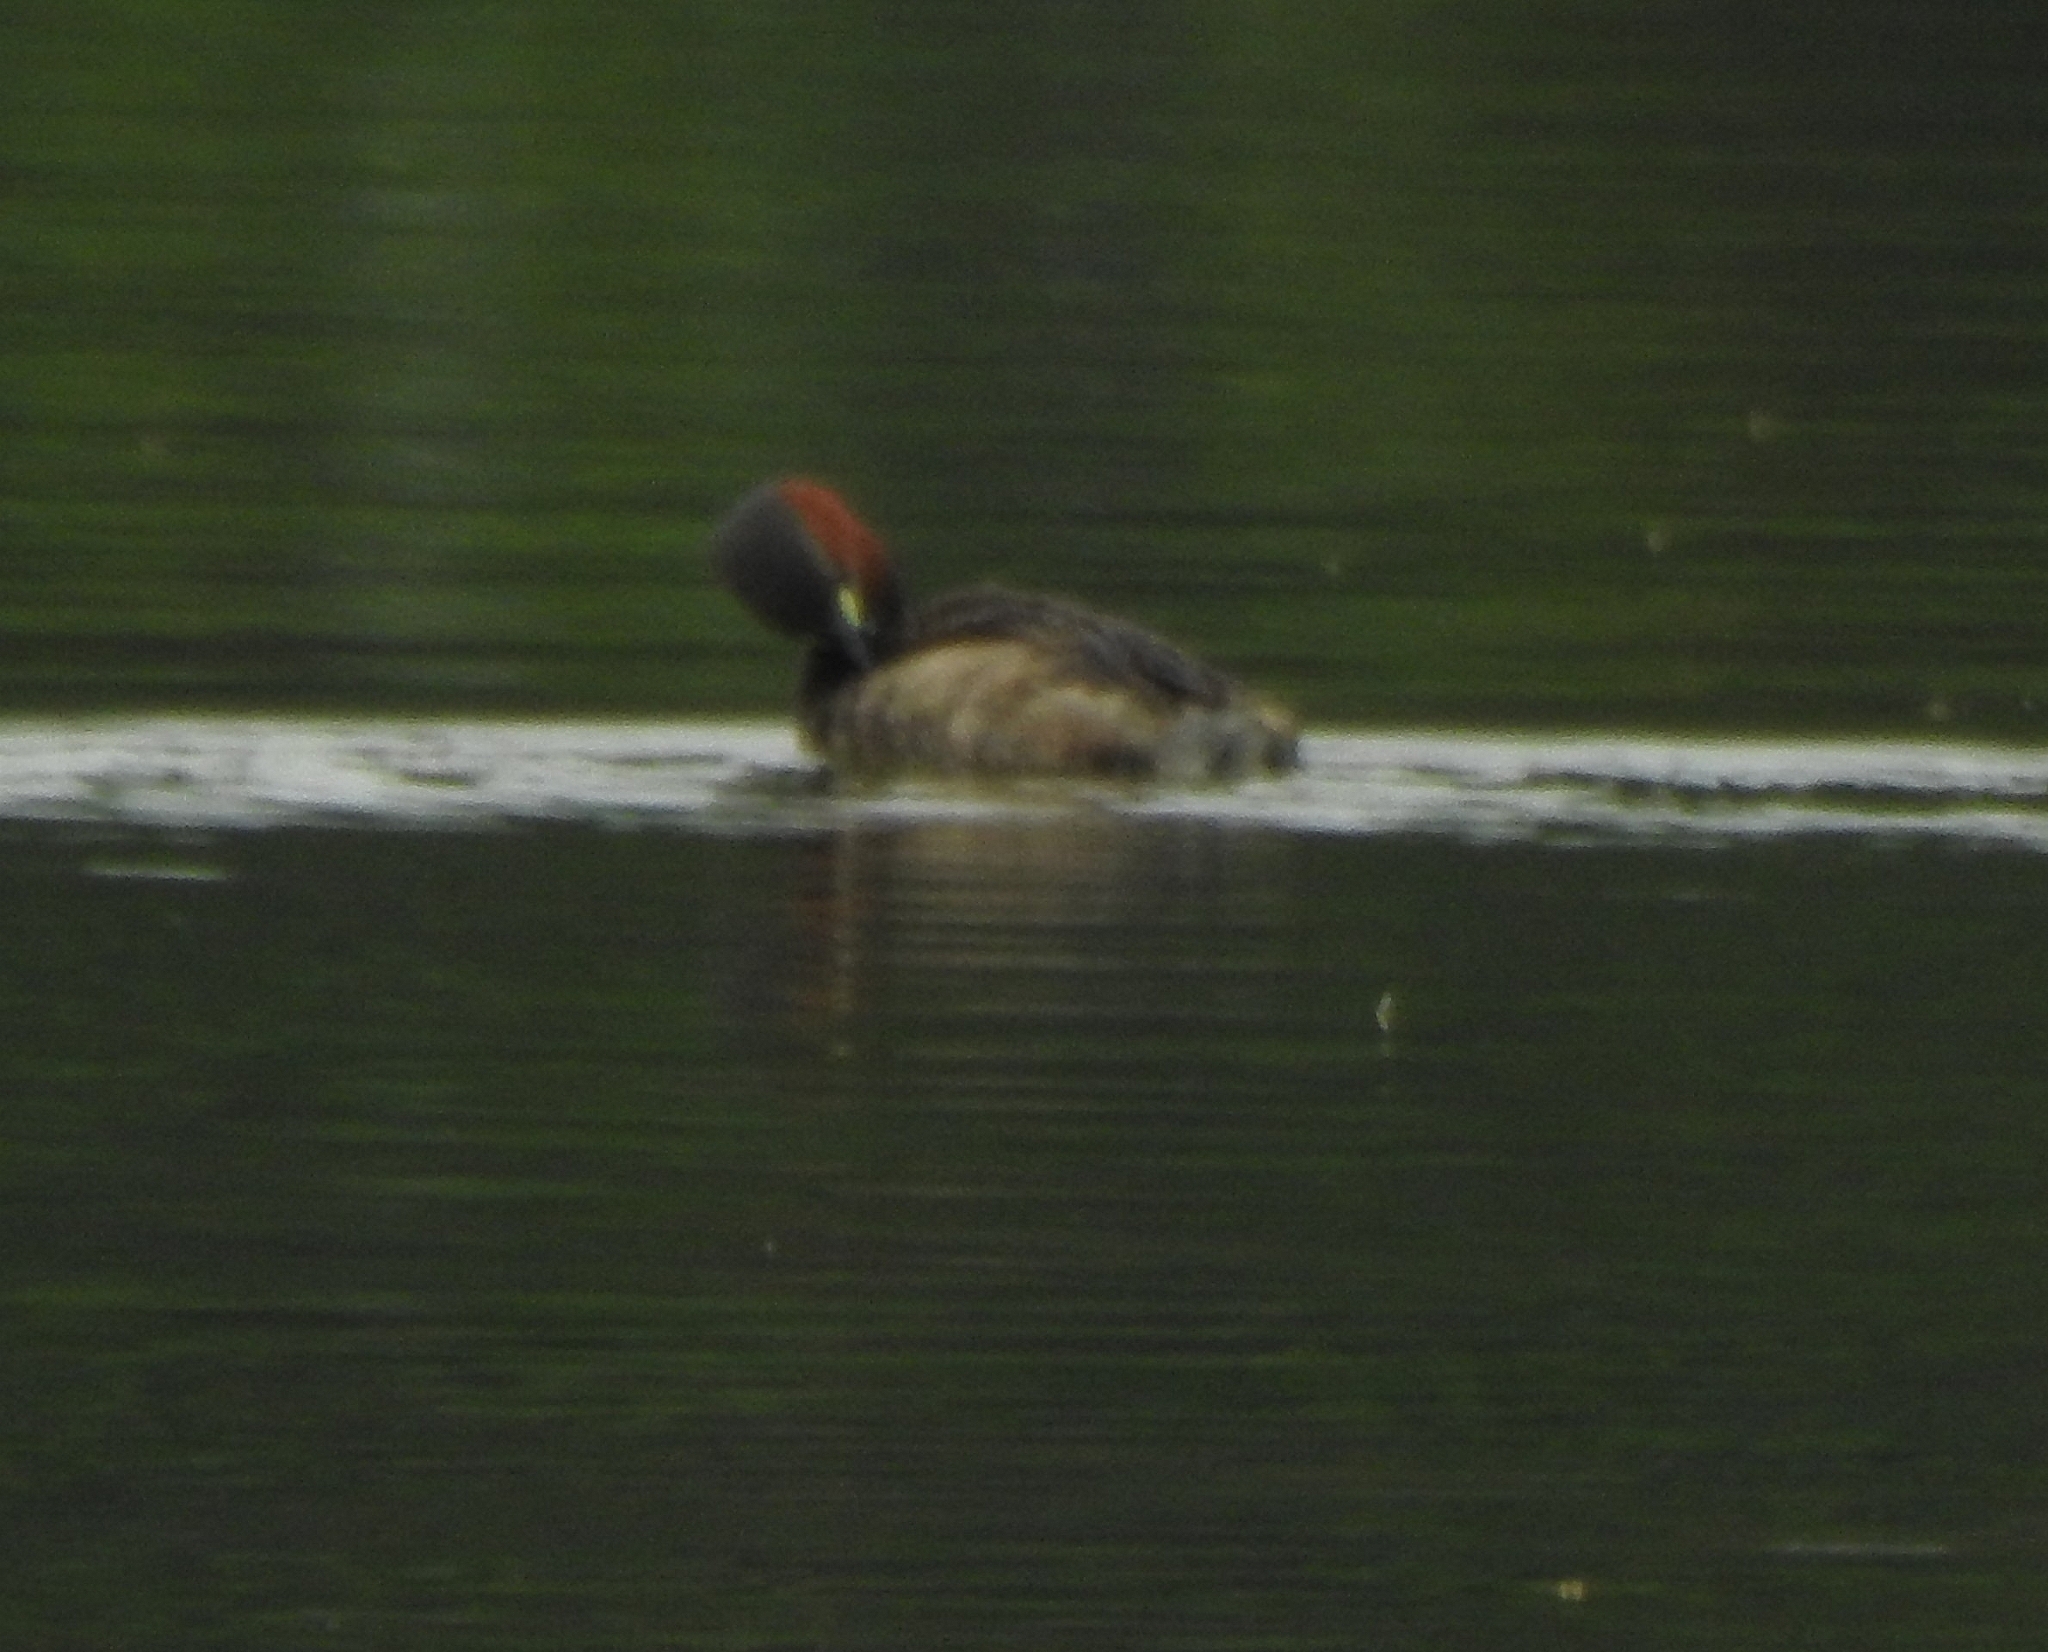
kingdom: Animalia
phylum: Chordata
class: Aves
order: Podicipediformes
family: Podicipedidae
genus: Tachybaptus
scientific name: Tachybaptus ruficollis
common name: Little grebe
